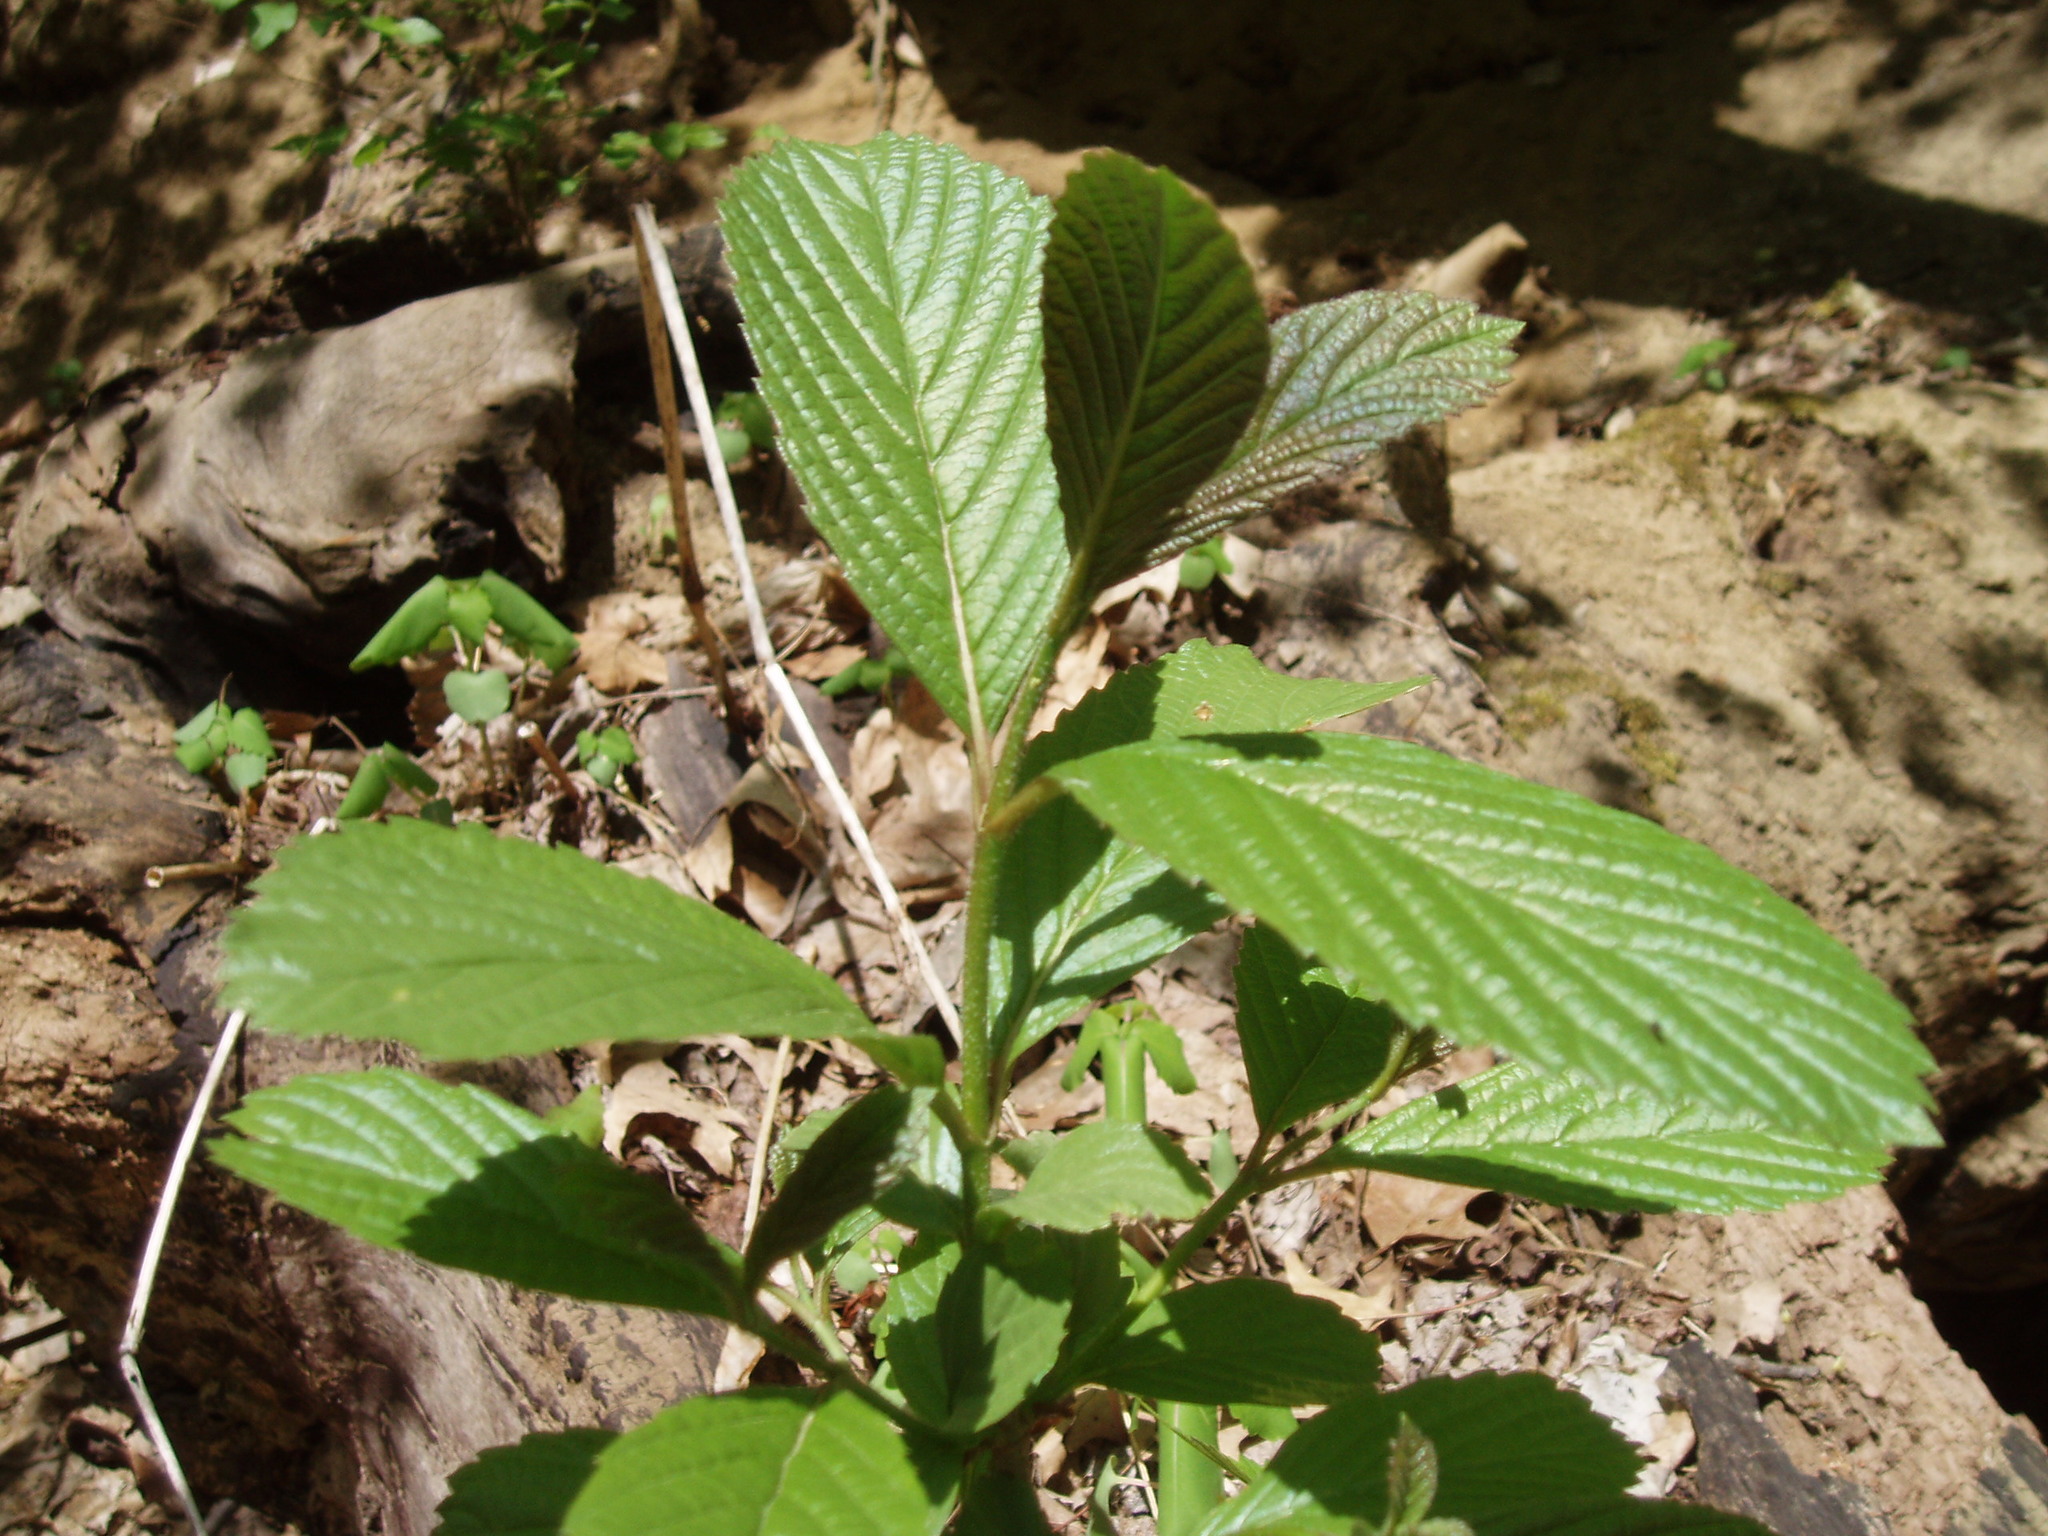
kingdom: Plantae
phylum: Tracheophyta
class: Magnoliopsida
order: Dipsacales
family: Viburnaceae
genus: Viburnum
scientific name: Viburnum sieboldii
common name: Siebold's arrowwood
